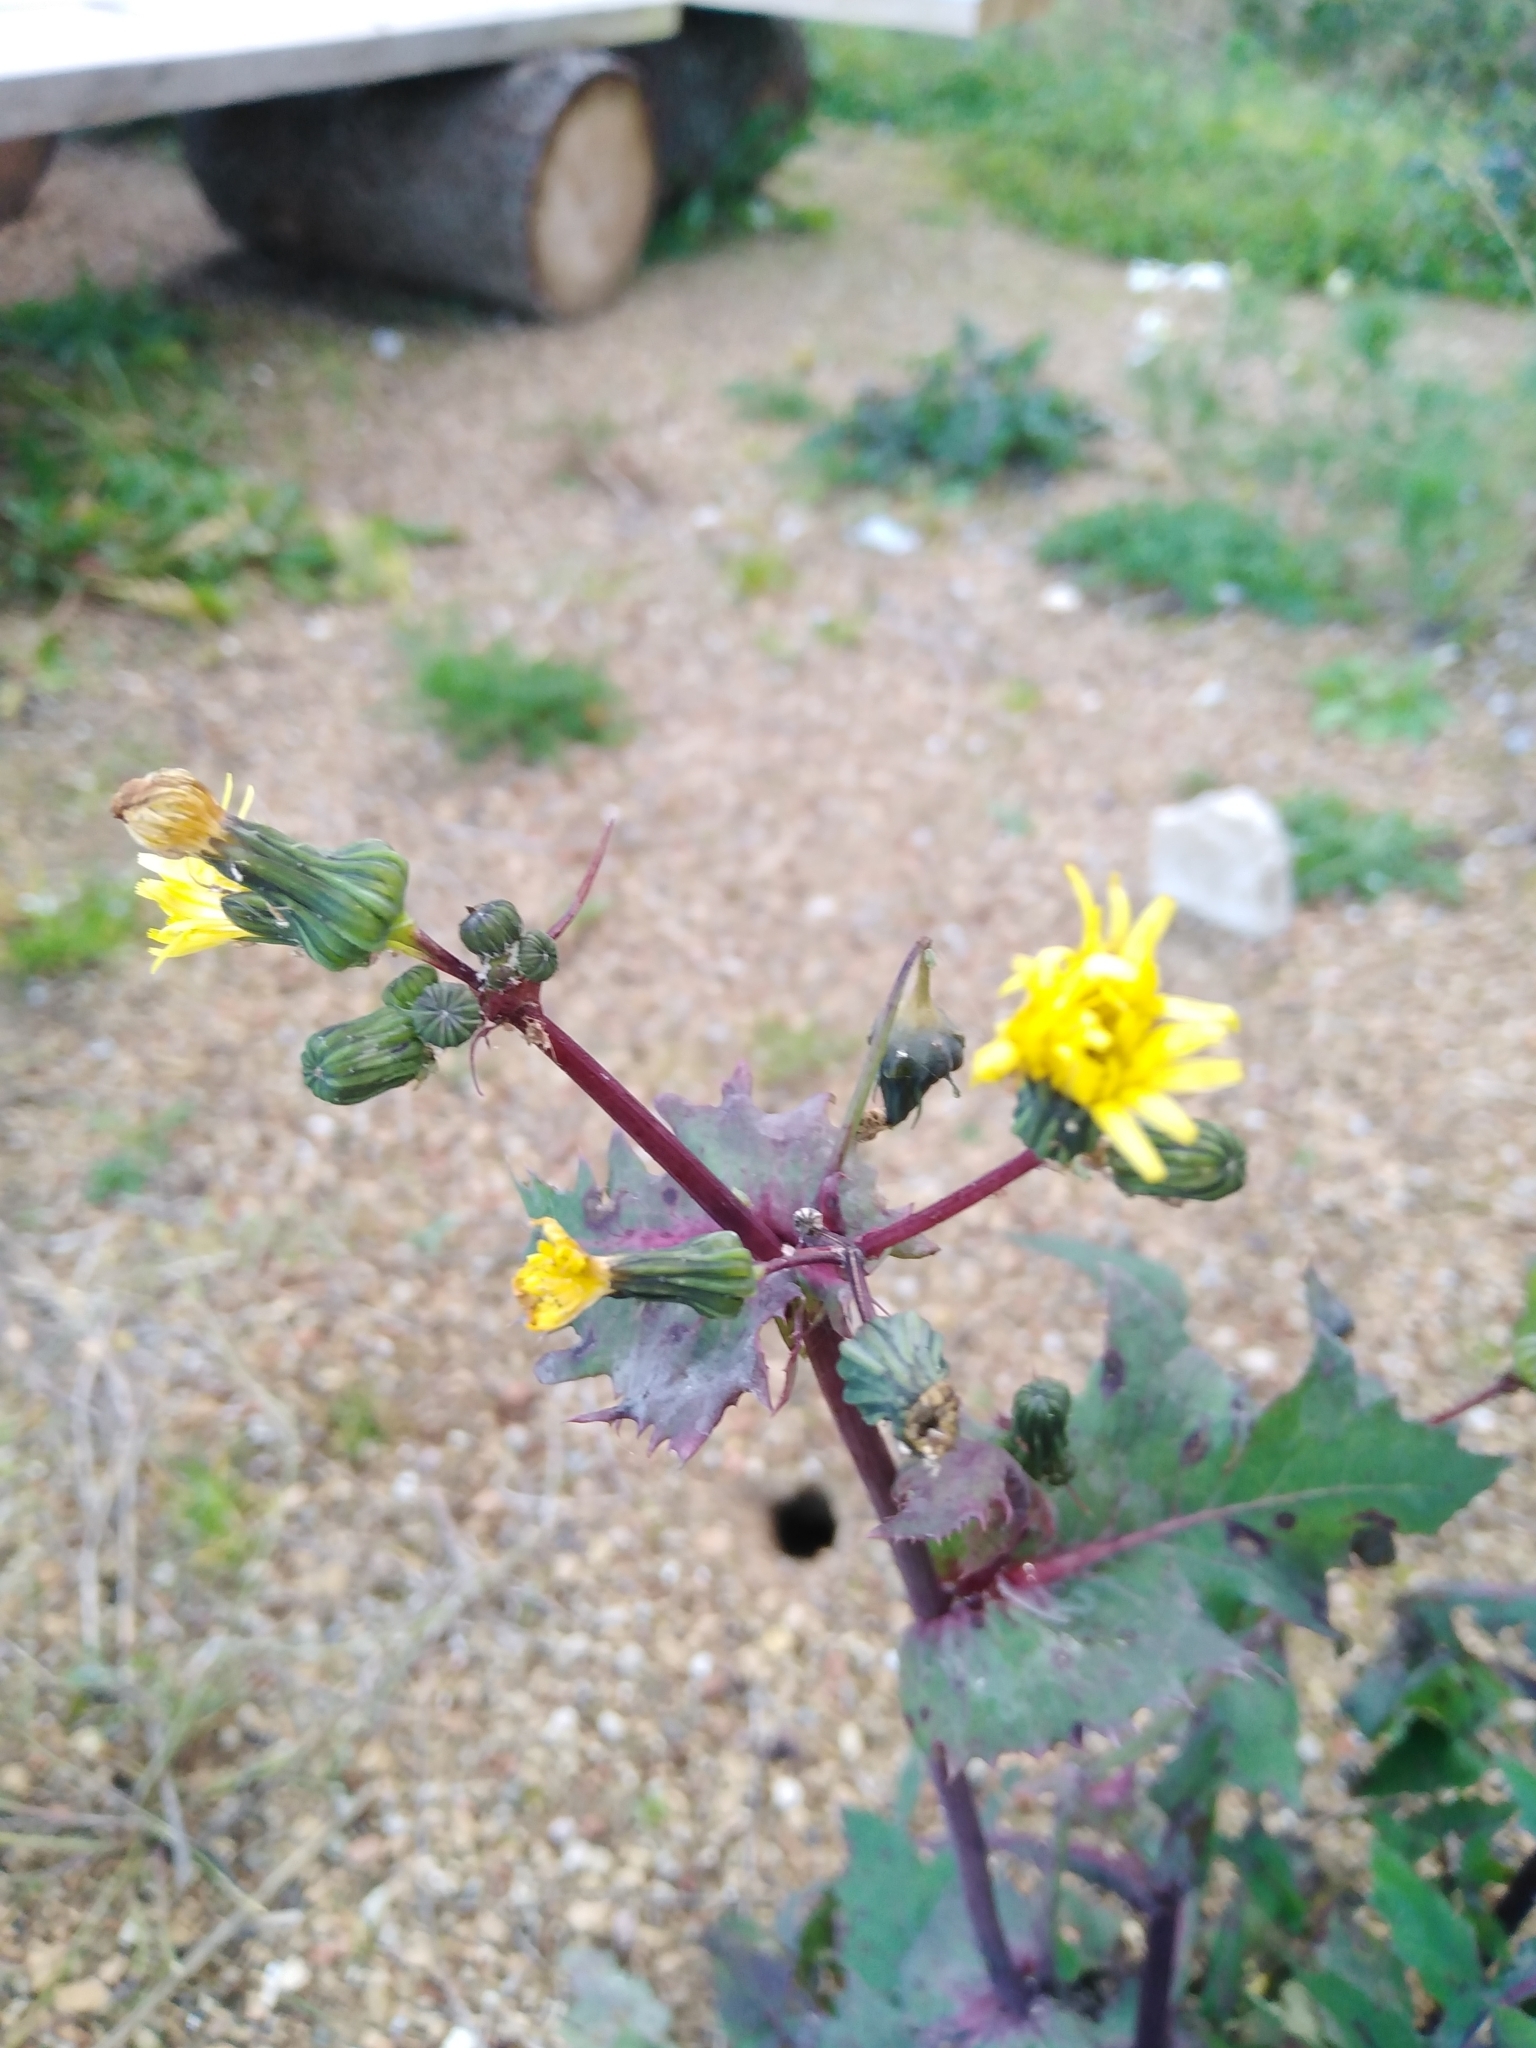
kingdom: Plantae
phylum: Tracheophyta
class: Magnoliopsida
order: Asterales
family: Asteraceae
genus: Sonchus
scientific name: Sonchus oleraceus
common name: Common sowthistle
